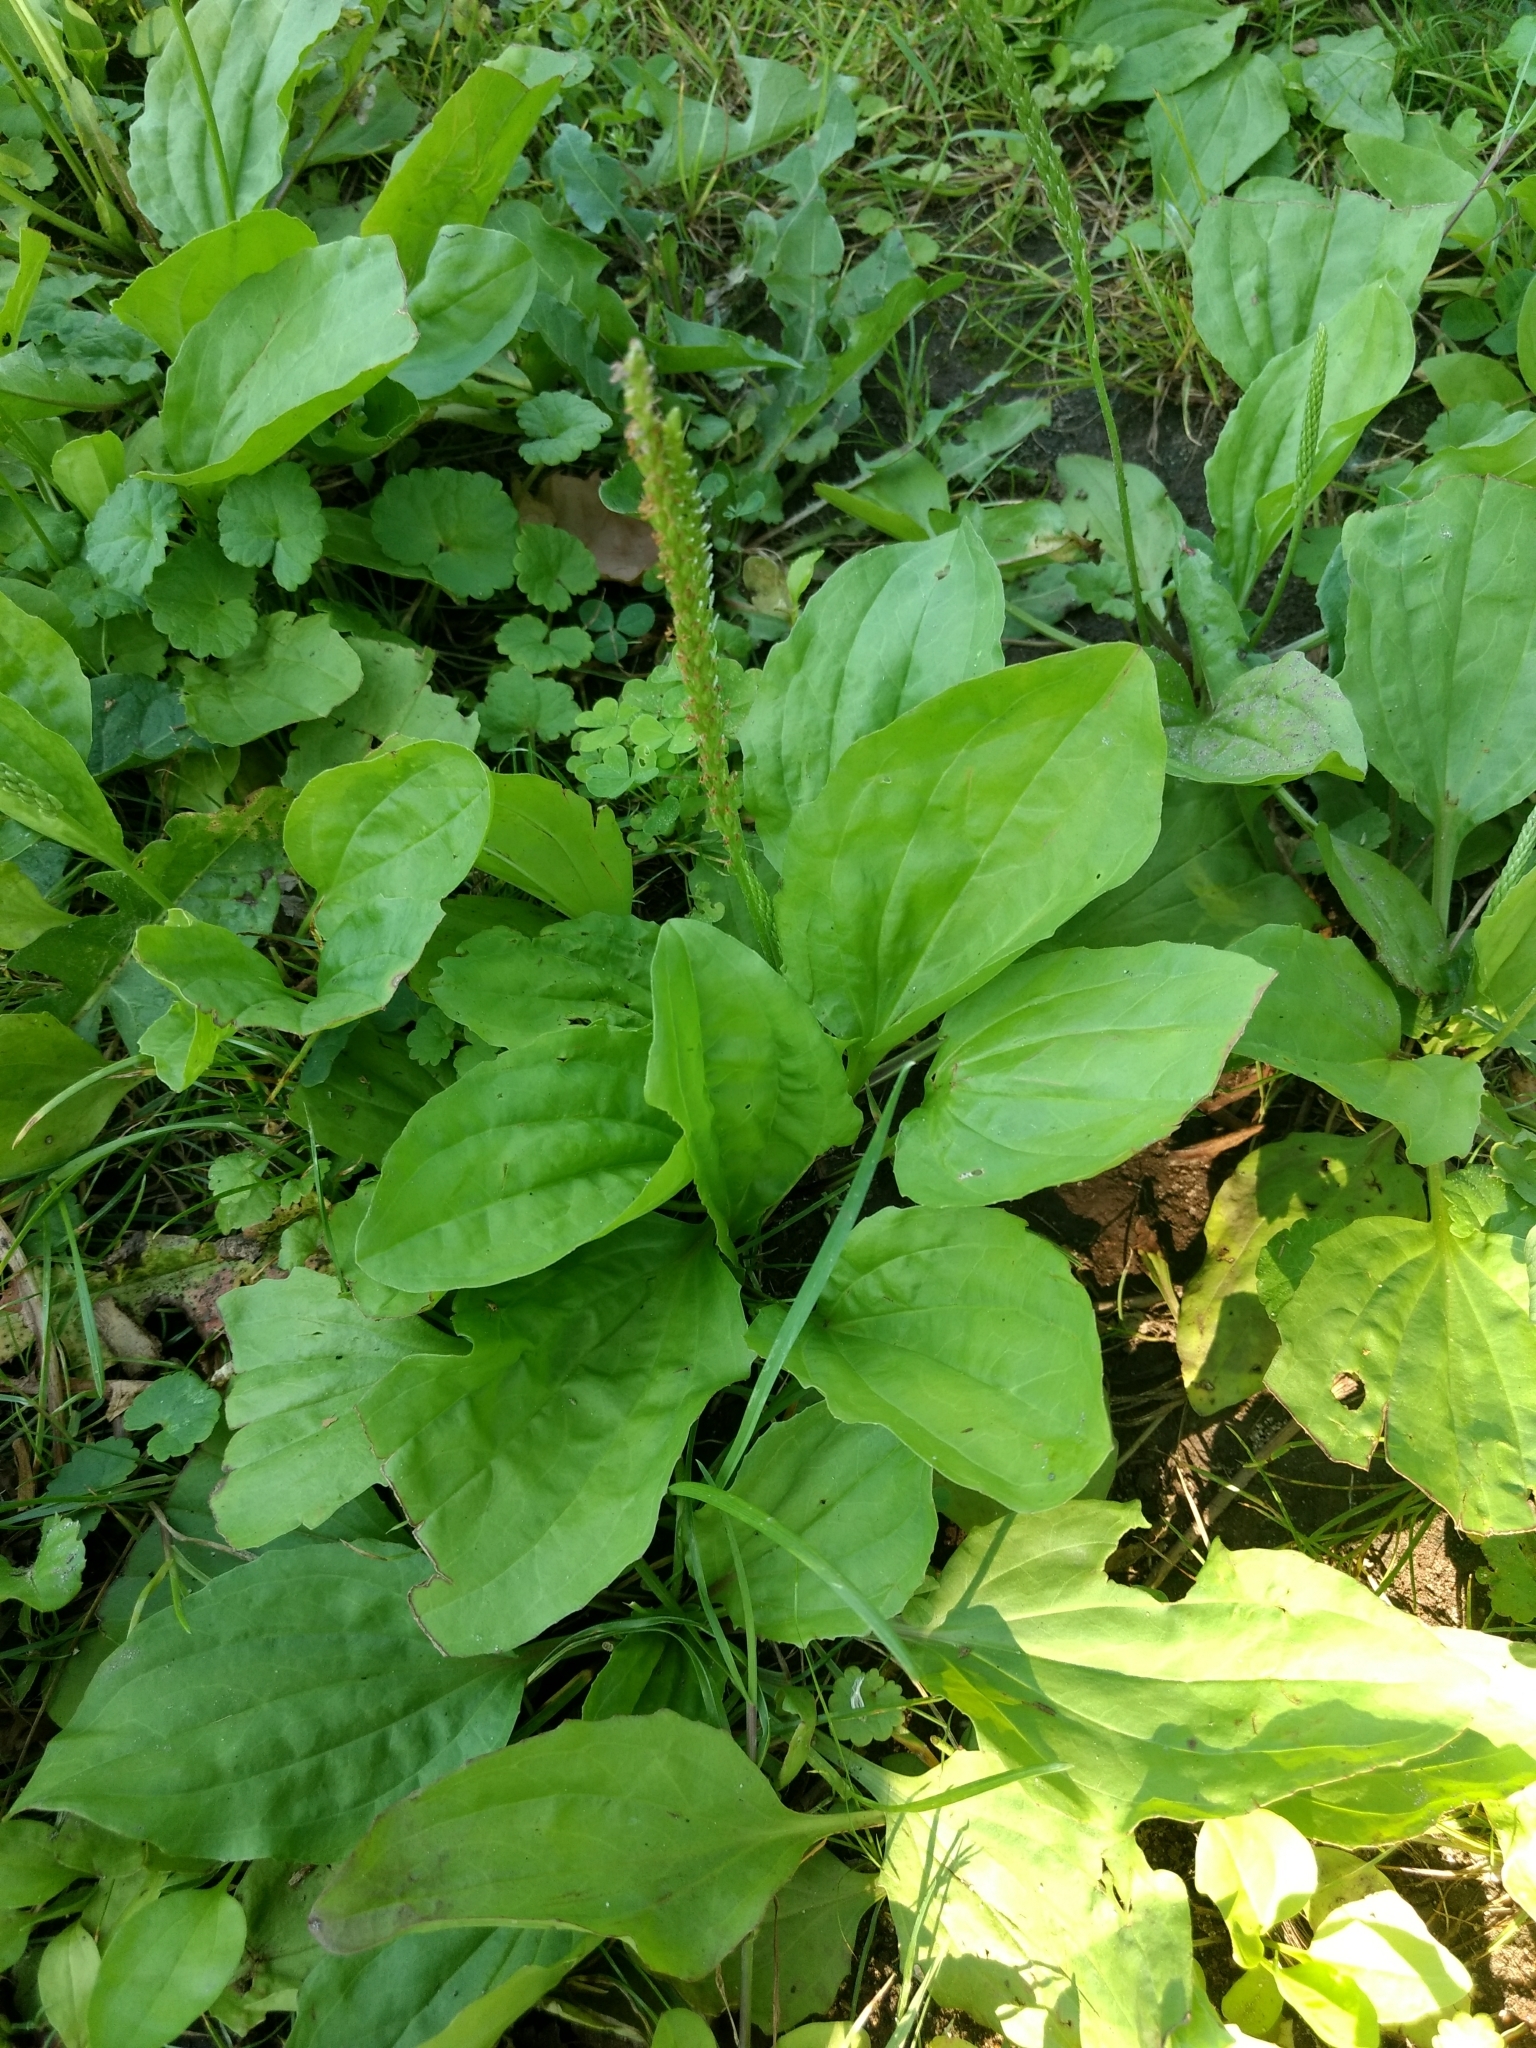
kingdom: Plantae
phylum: Tracheophyta
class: Magnoliopsida
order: Lamiales
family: Plantaginaceae
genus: Plantago
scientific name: Plantago rugelii
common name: American plantain
